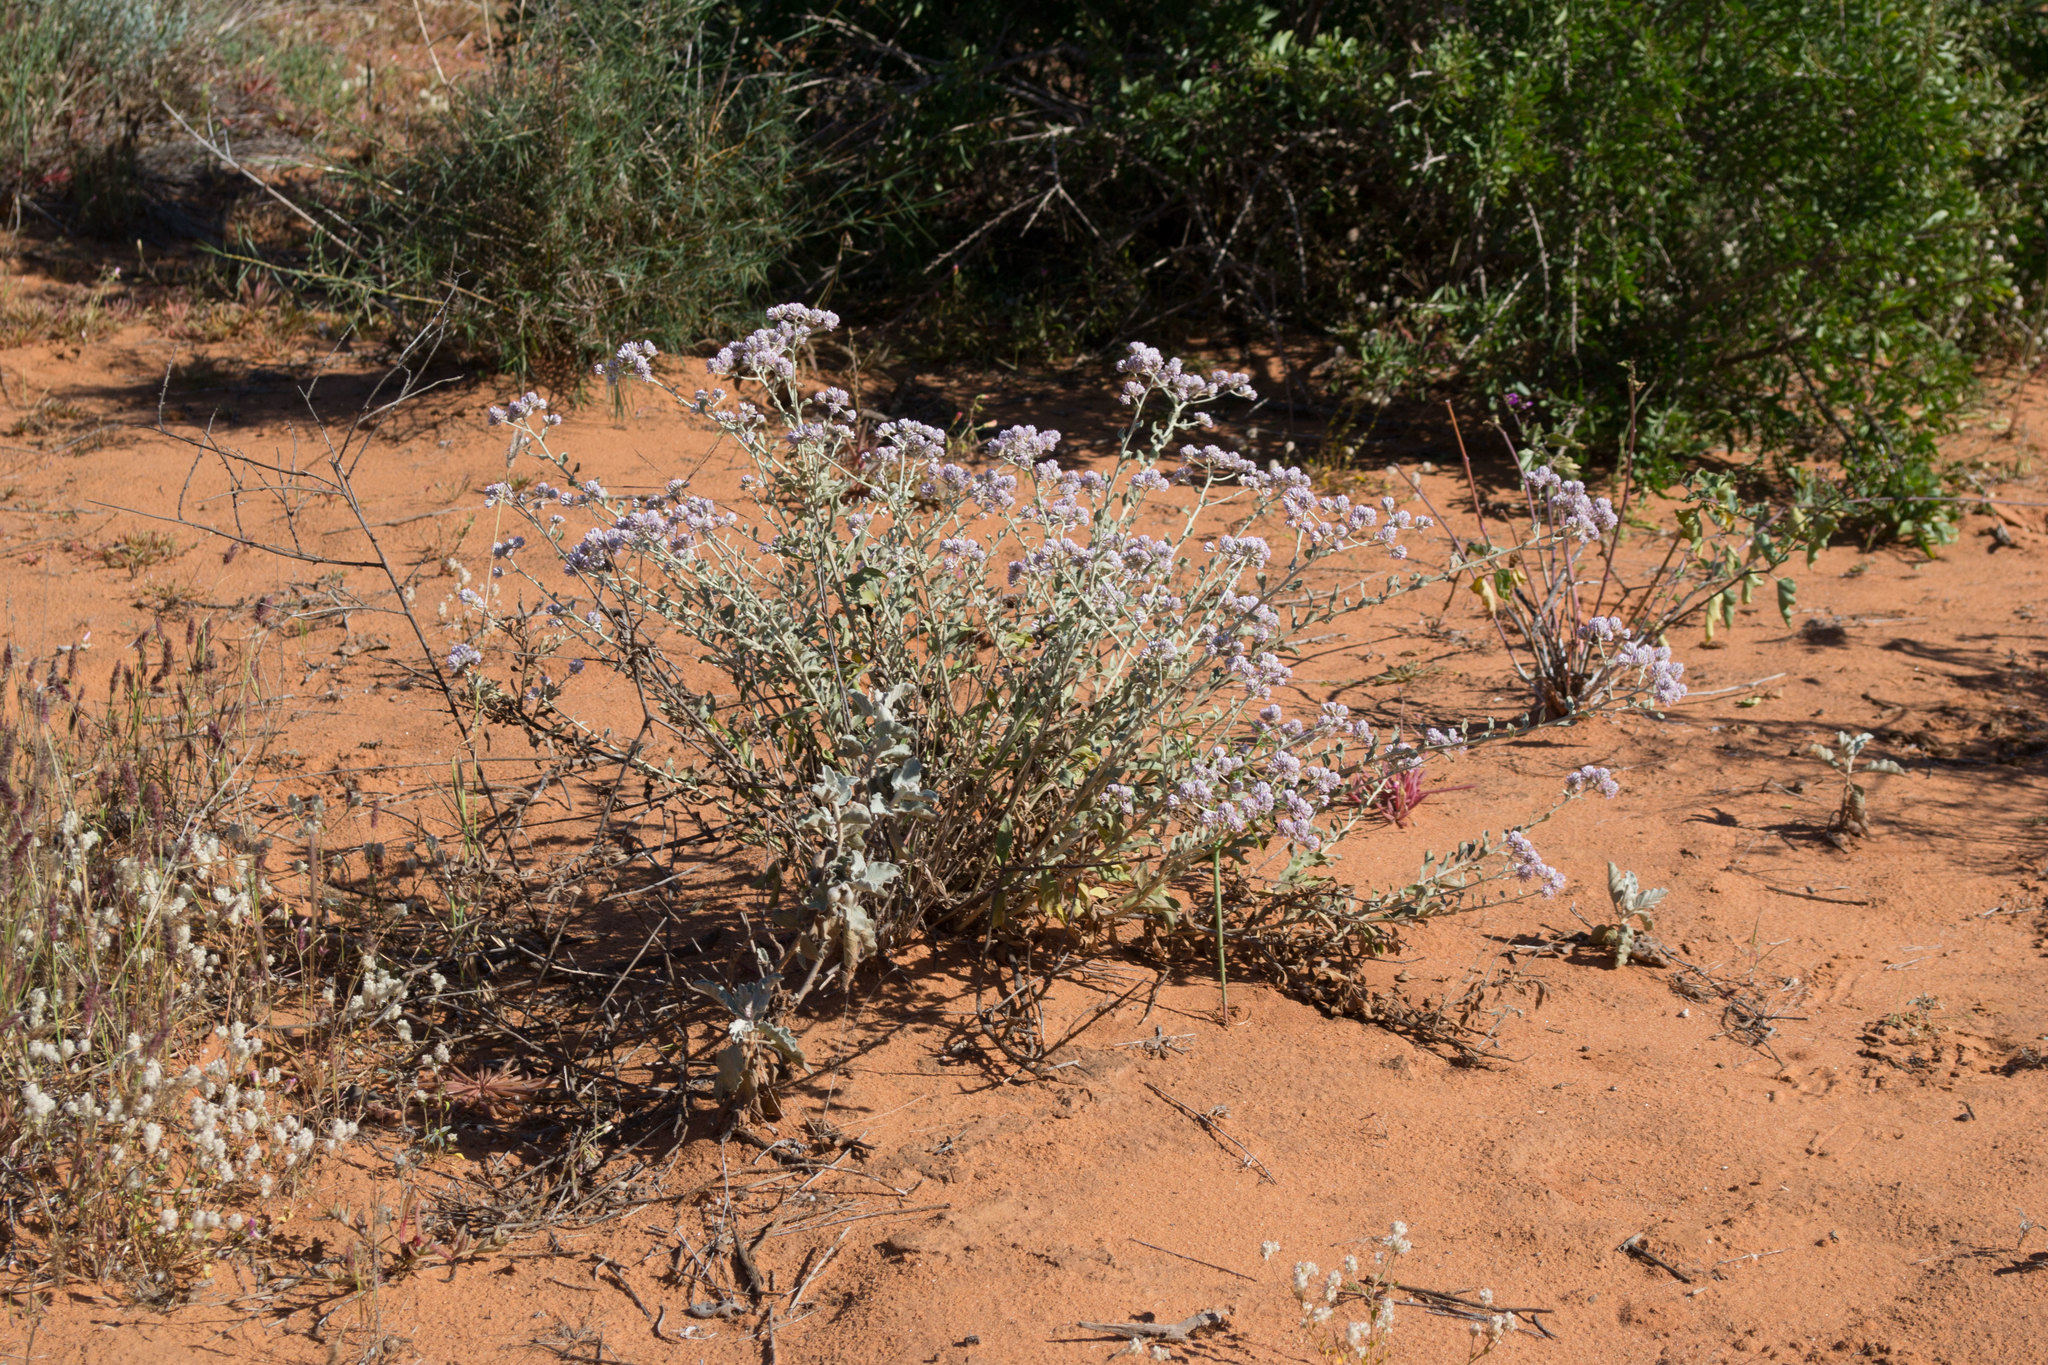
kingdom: Plantae
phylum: Tracheophyta
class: Magnoliopsida
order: Caryophyllales
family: Amaranthaceae
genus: Ptilotus
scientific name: Ptilotus obovatus
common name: Cottonbush
